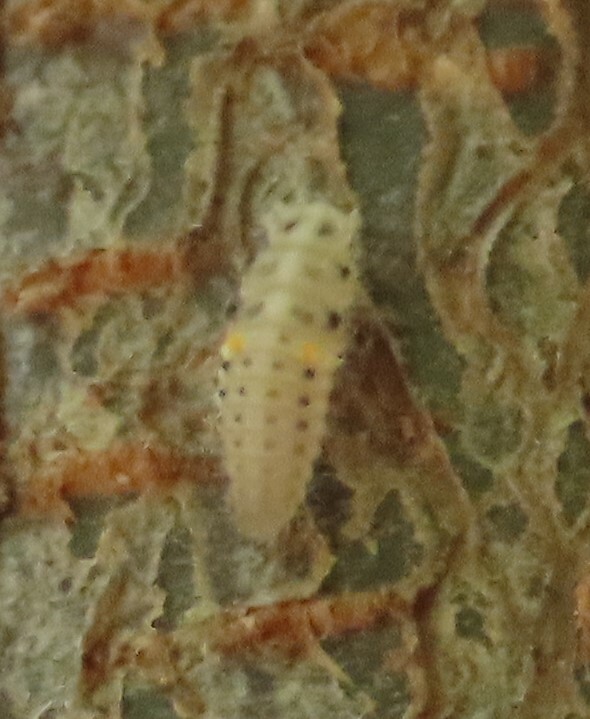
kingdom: Animalia
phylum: Arthropoda
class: Insecta
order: Coleoptera
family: Coccinellidae
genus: Psyllobora
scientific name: Psyllobora vigintimaculata
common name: Ladybird beetle
